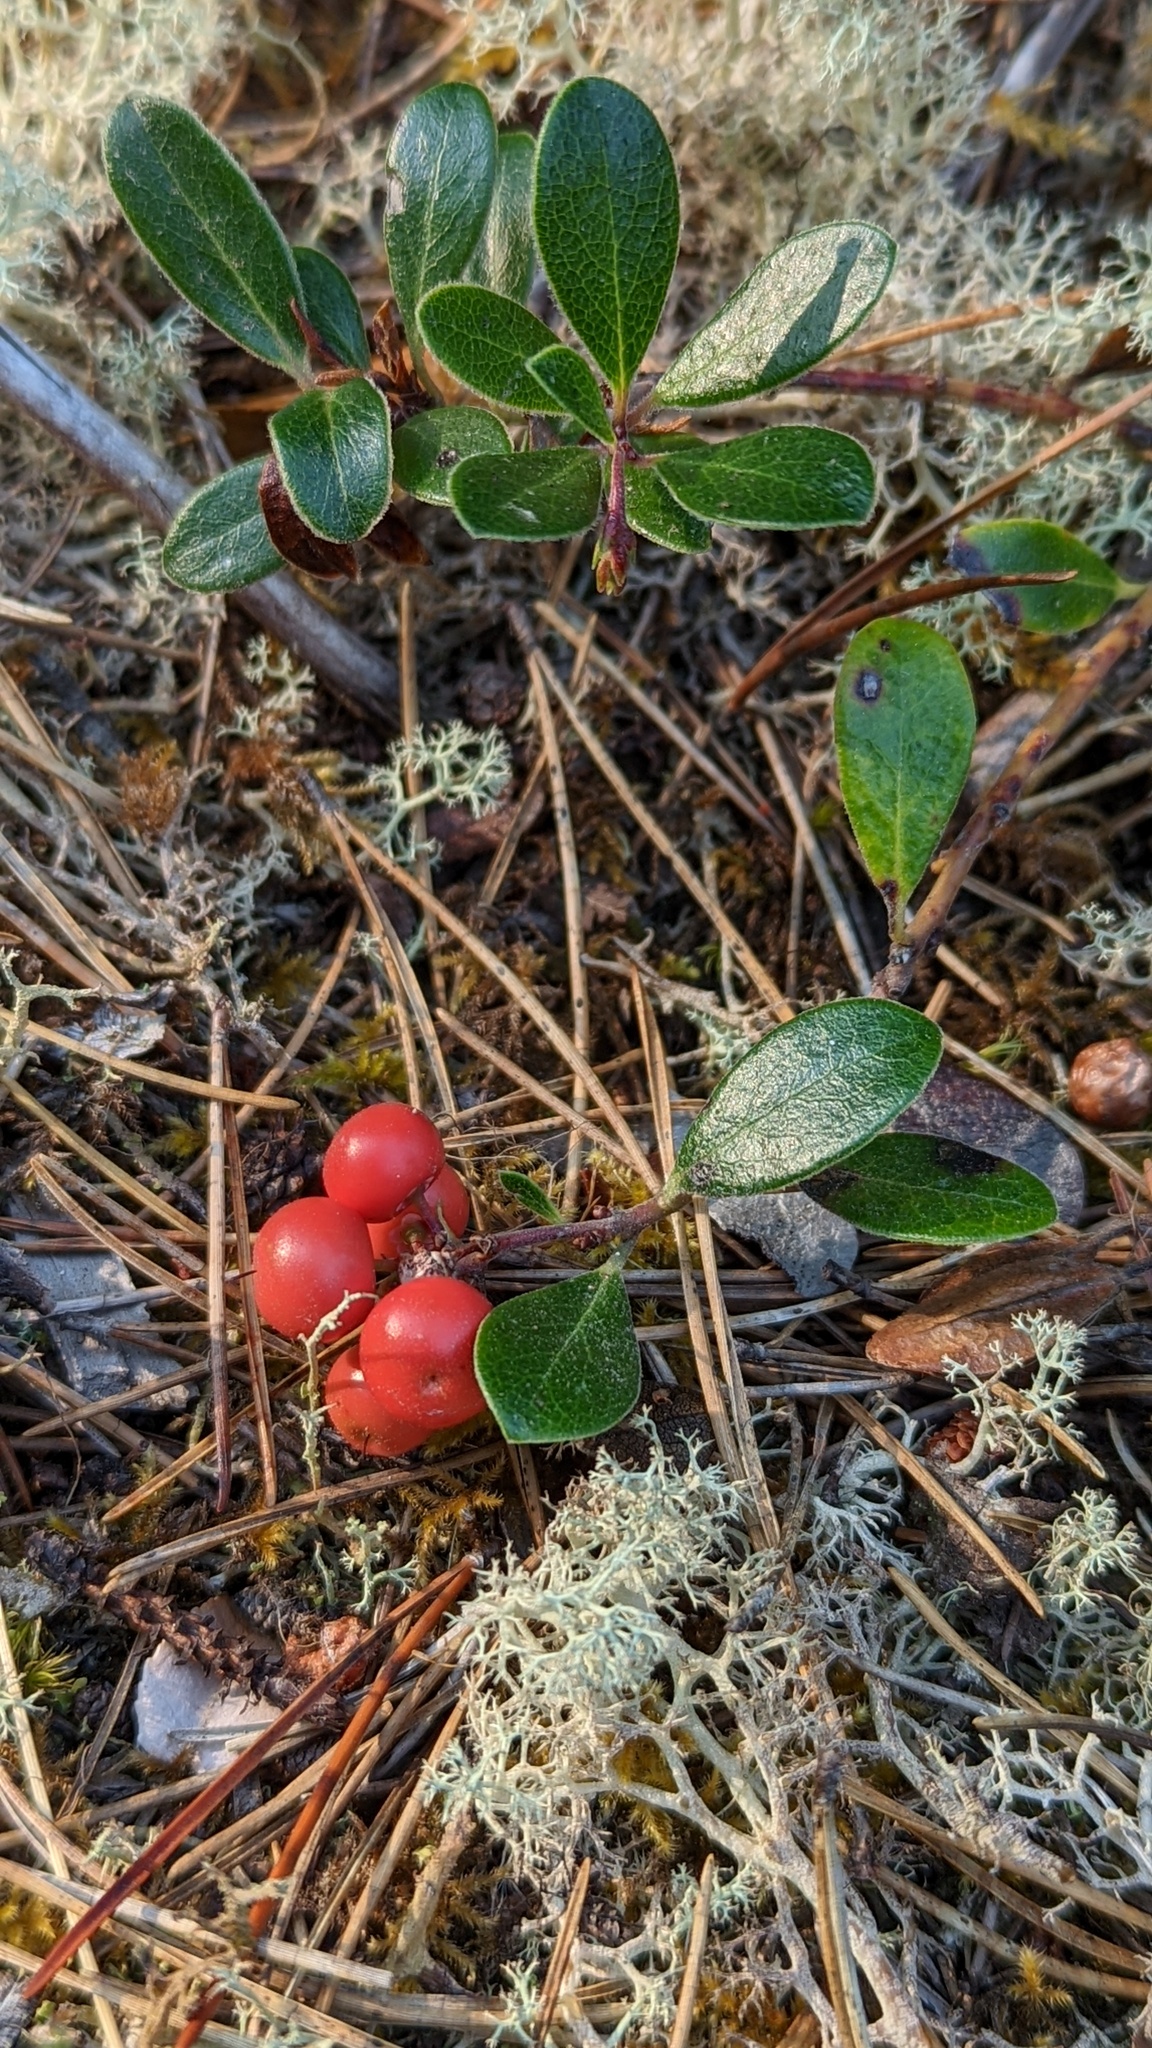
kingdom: Plantae
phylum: Tracheophyta
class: Magnoliopsida
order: Ericales
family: Ericaceae
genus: Arctostaphylos
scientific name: Arctostaphylos uva-ursi
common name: Bearberry
